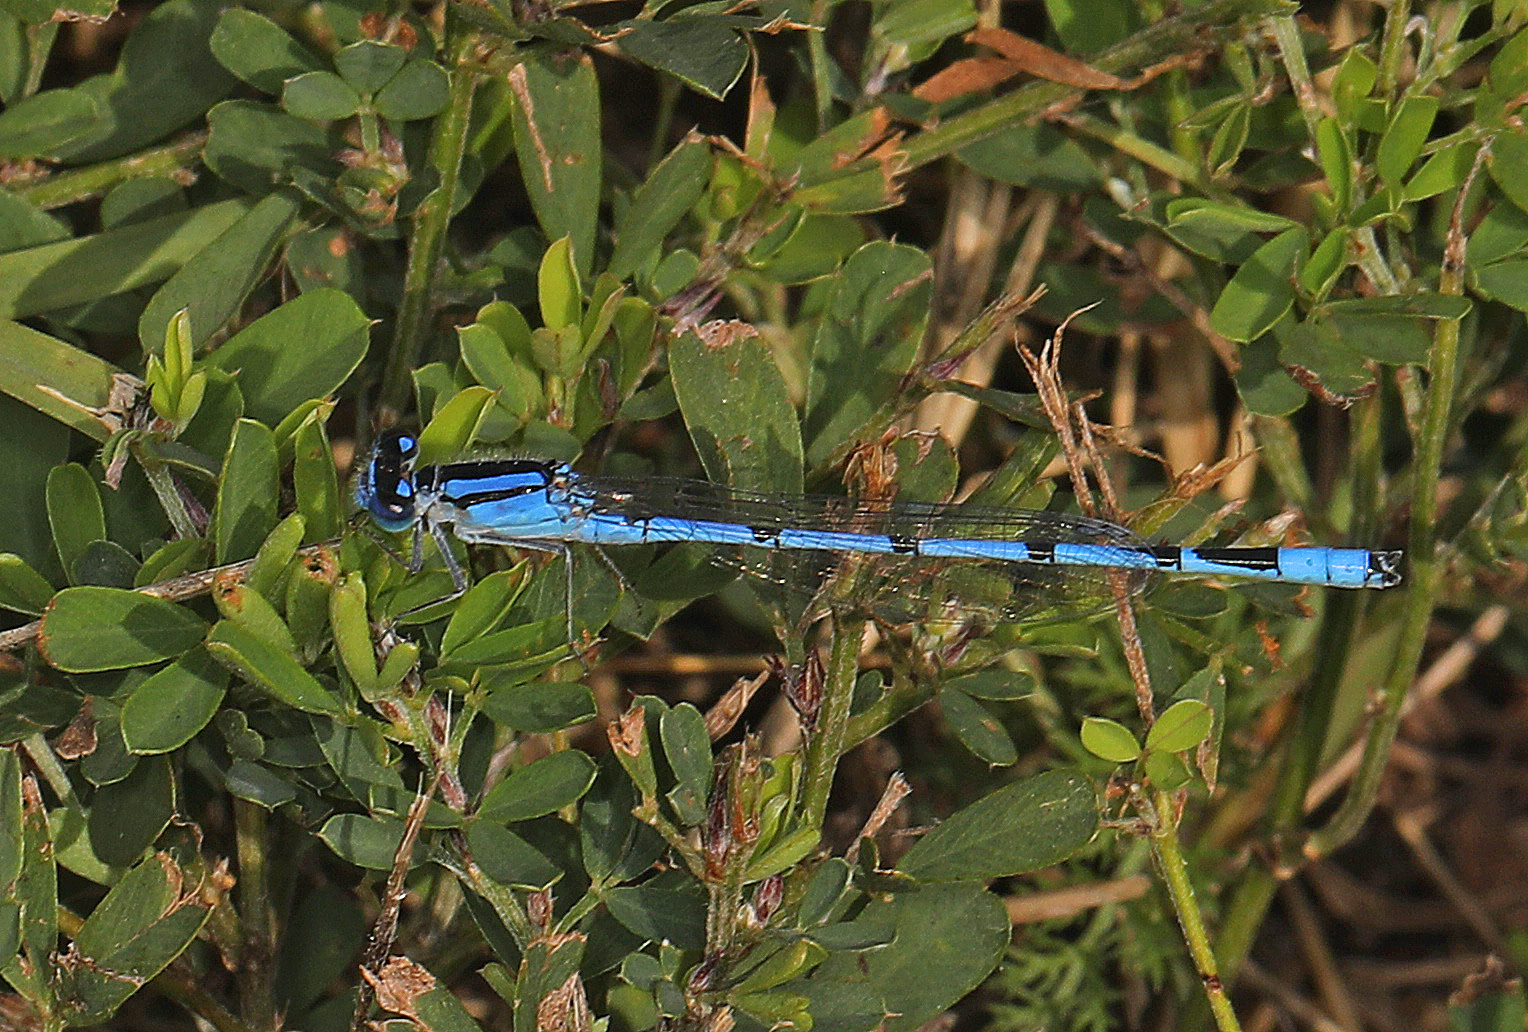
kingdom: Animalia
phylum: Arthropoda
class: Insecta
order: Odonata
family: Coenagrionidae
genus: Enallagma
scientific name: Enallagma civile
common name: Damselfly
